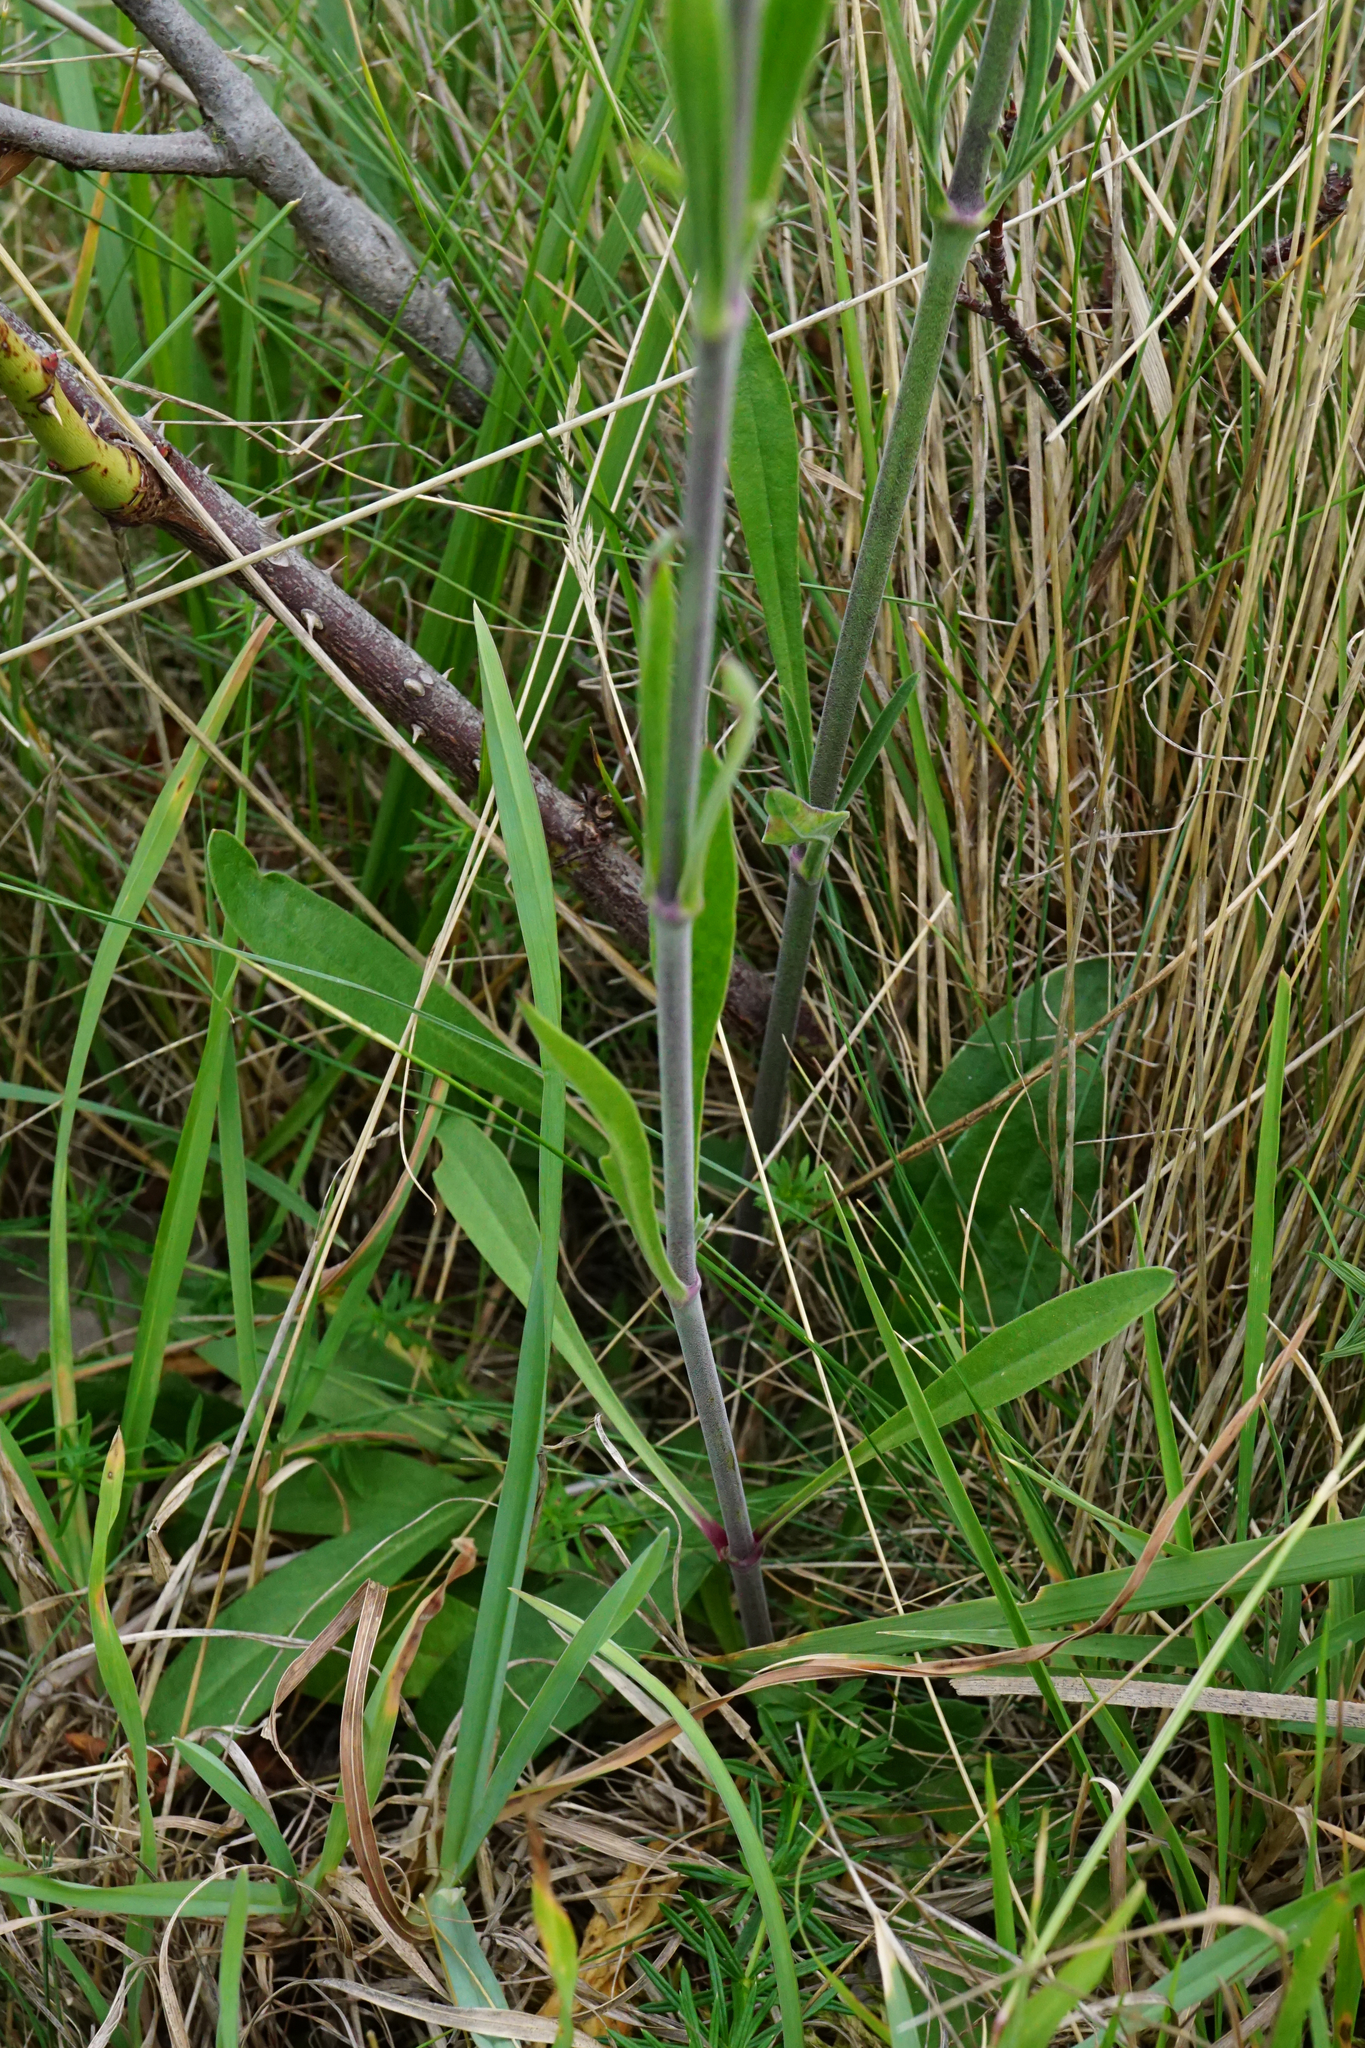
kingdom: Plantae
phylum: Tracheophyta
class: Magnoliopsida
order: Caryophyllales
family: Caryophyllaceae
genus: Silene
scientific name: Silene multiflora
